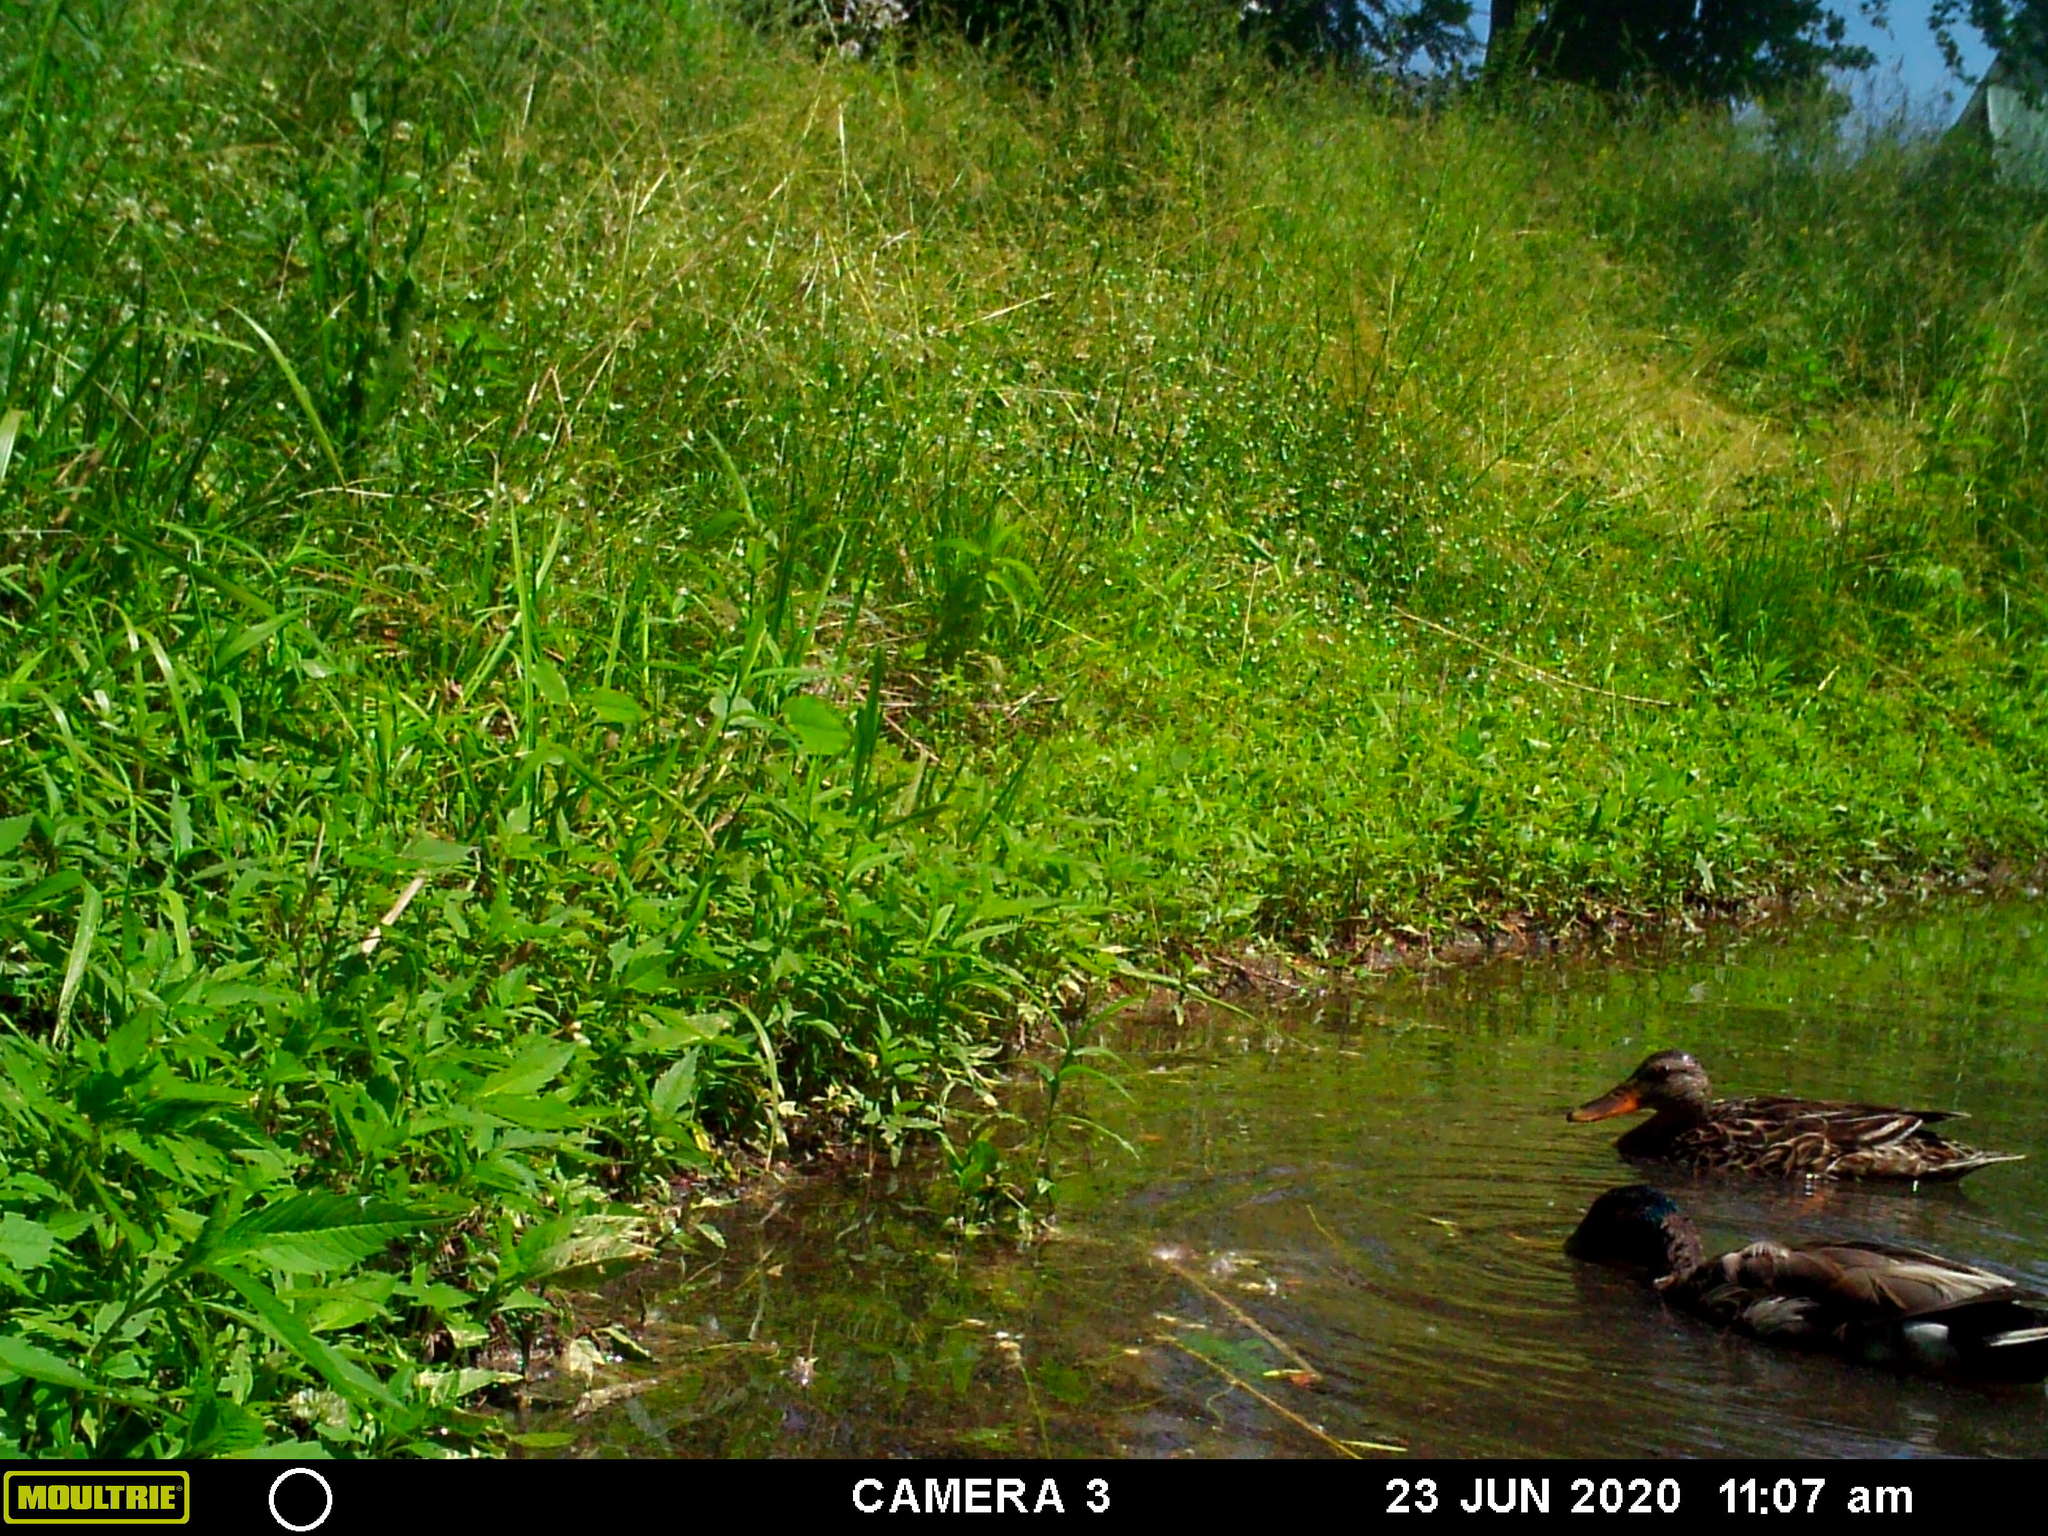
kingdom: Animalia
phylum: Chordata
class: Aves
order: Anseriformes
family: Anatidae
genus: Anas
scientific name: Anas platyrhynchos
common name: Mallard
